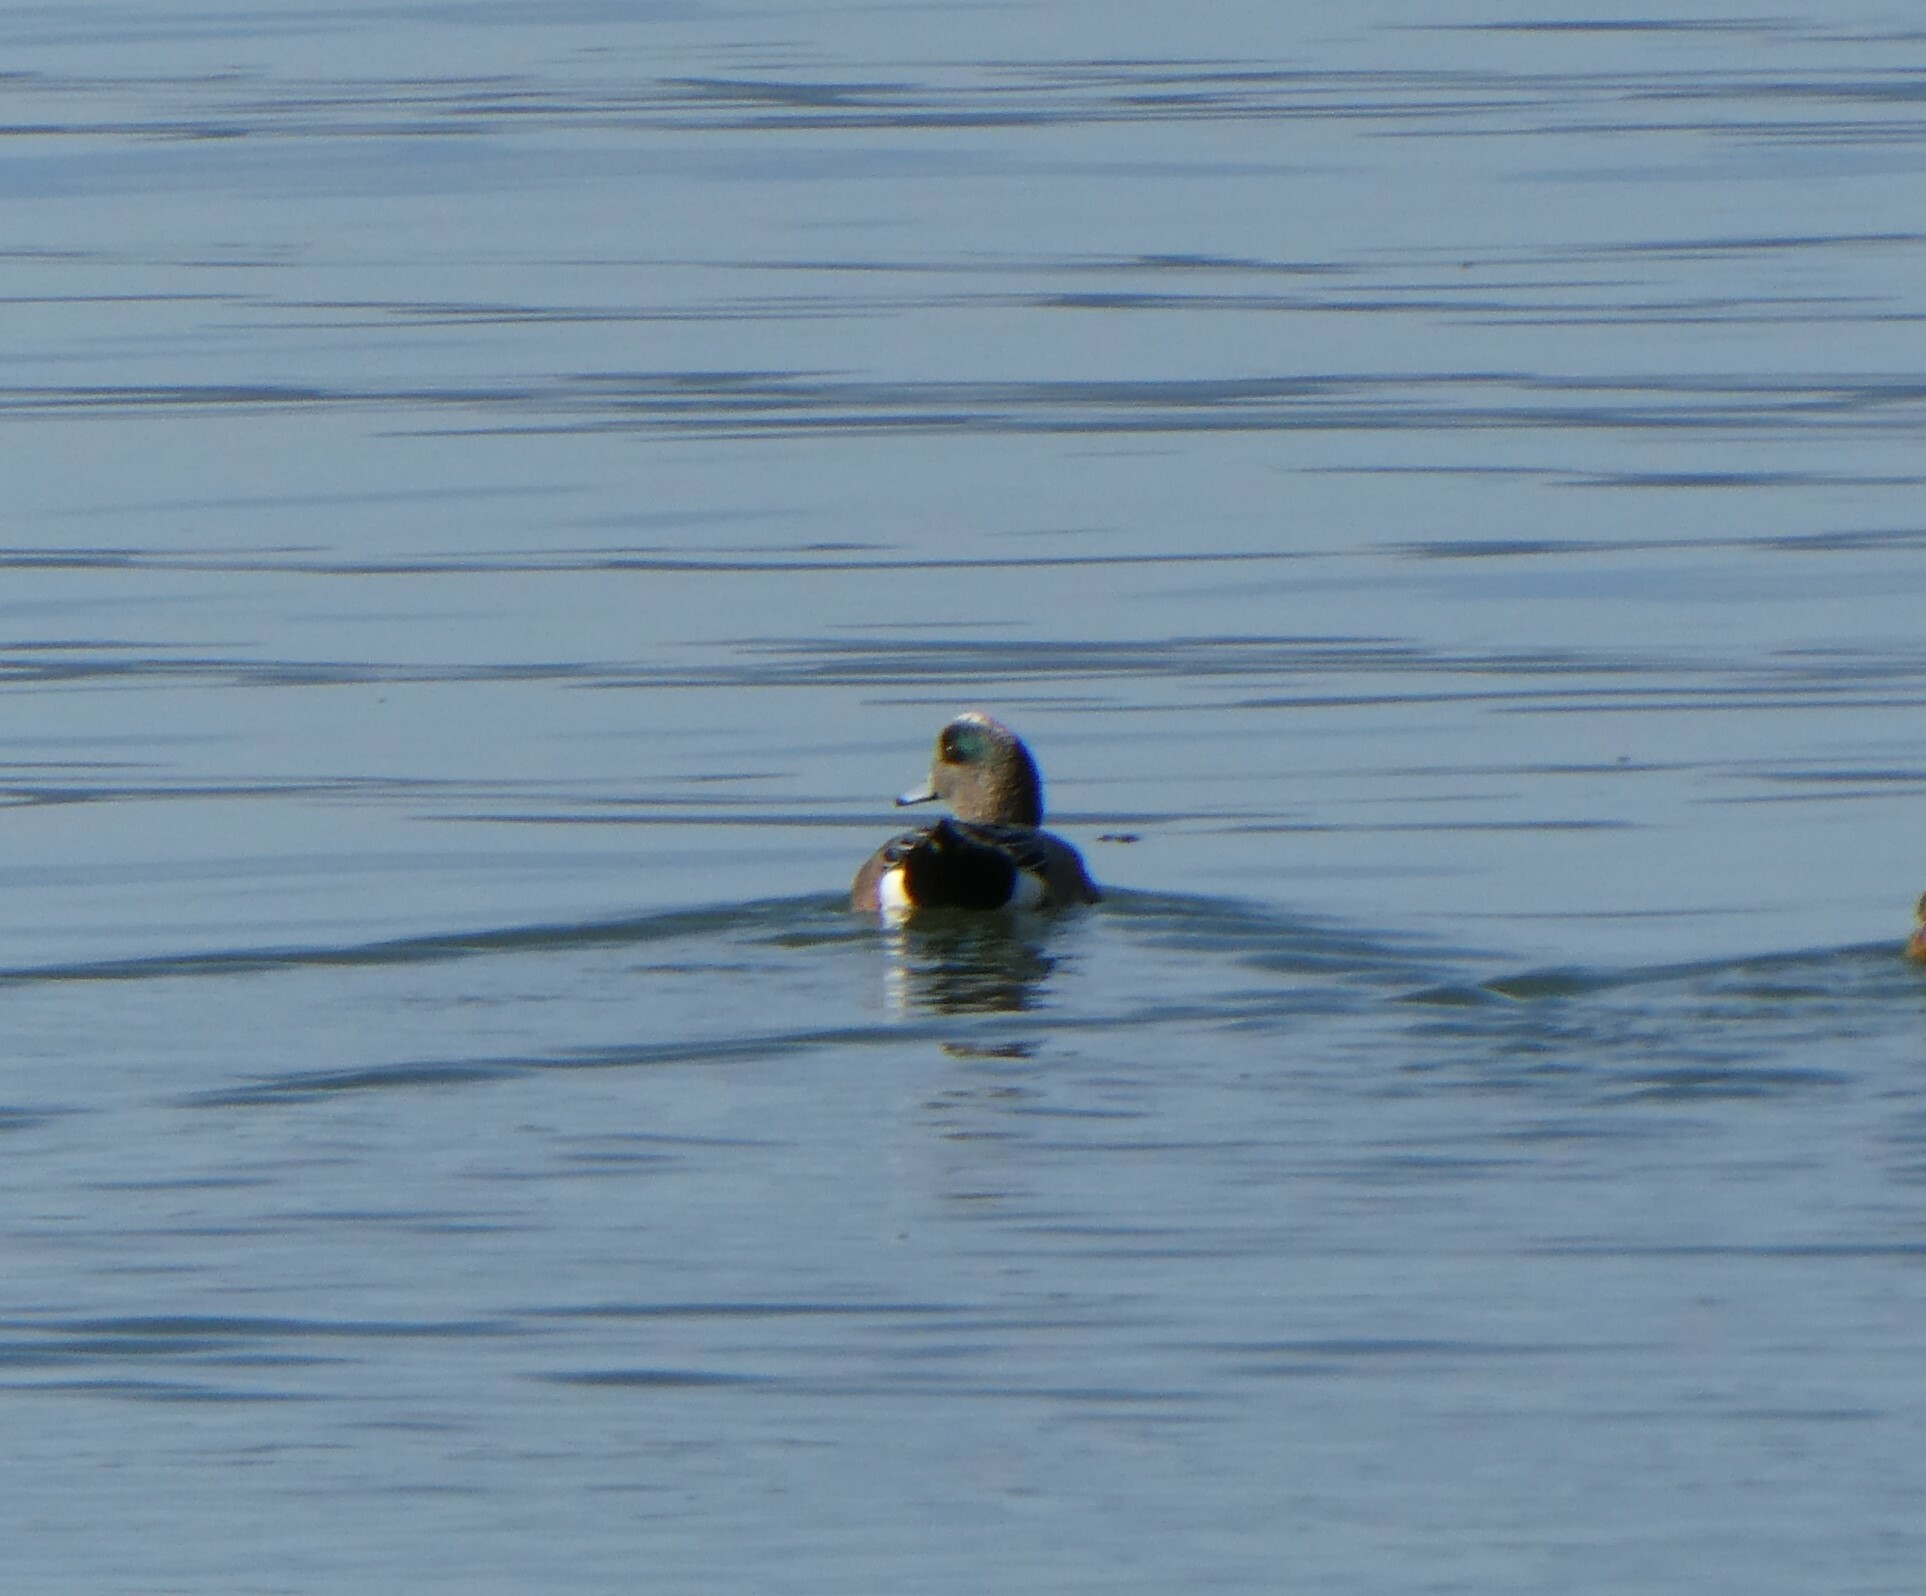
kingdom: Animalia
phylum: Chordata
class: Aves
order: Anseriformes
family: Anatidae
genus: Mareca
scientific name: Mareca americana
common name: American wigeon
